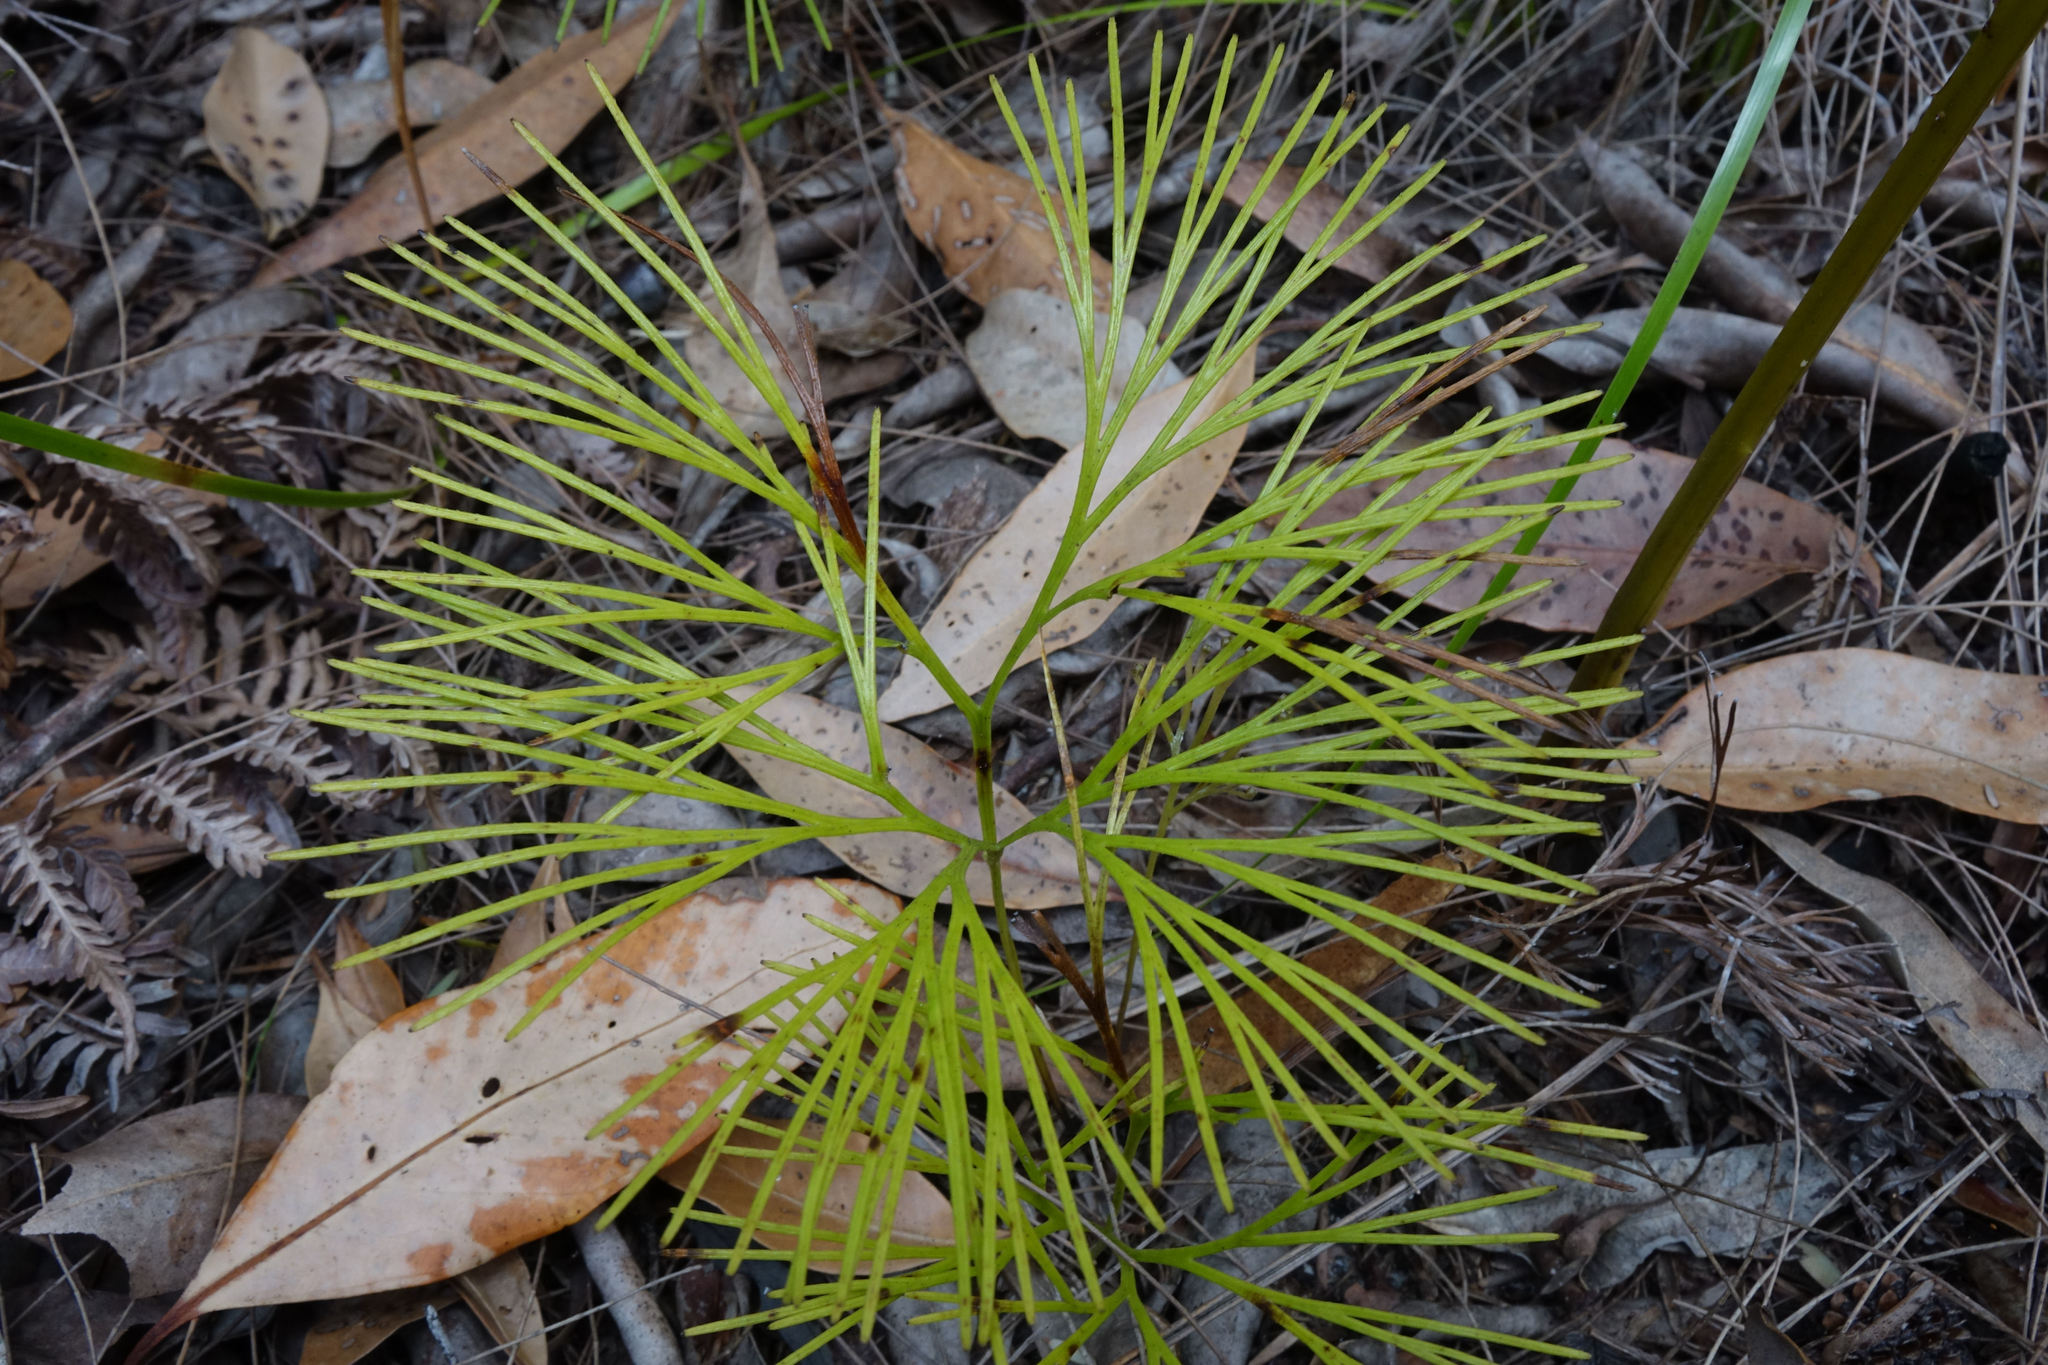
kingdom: Plantae
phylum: Tracheophyta
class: Polypodiopsida
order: Schizaeales
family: Schizaeaceae
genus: Schizaea
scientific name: Schizaea dichotoma
